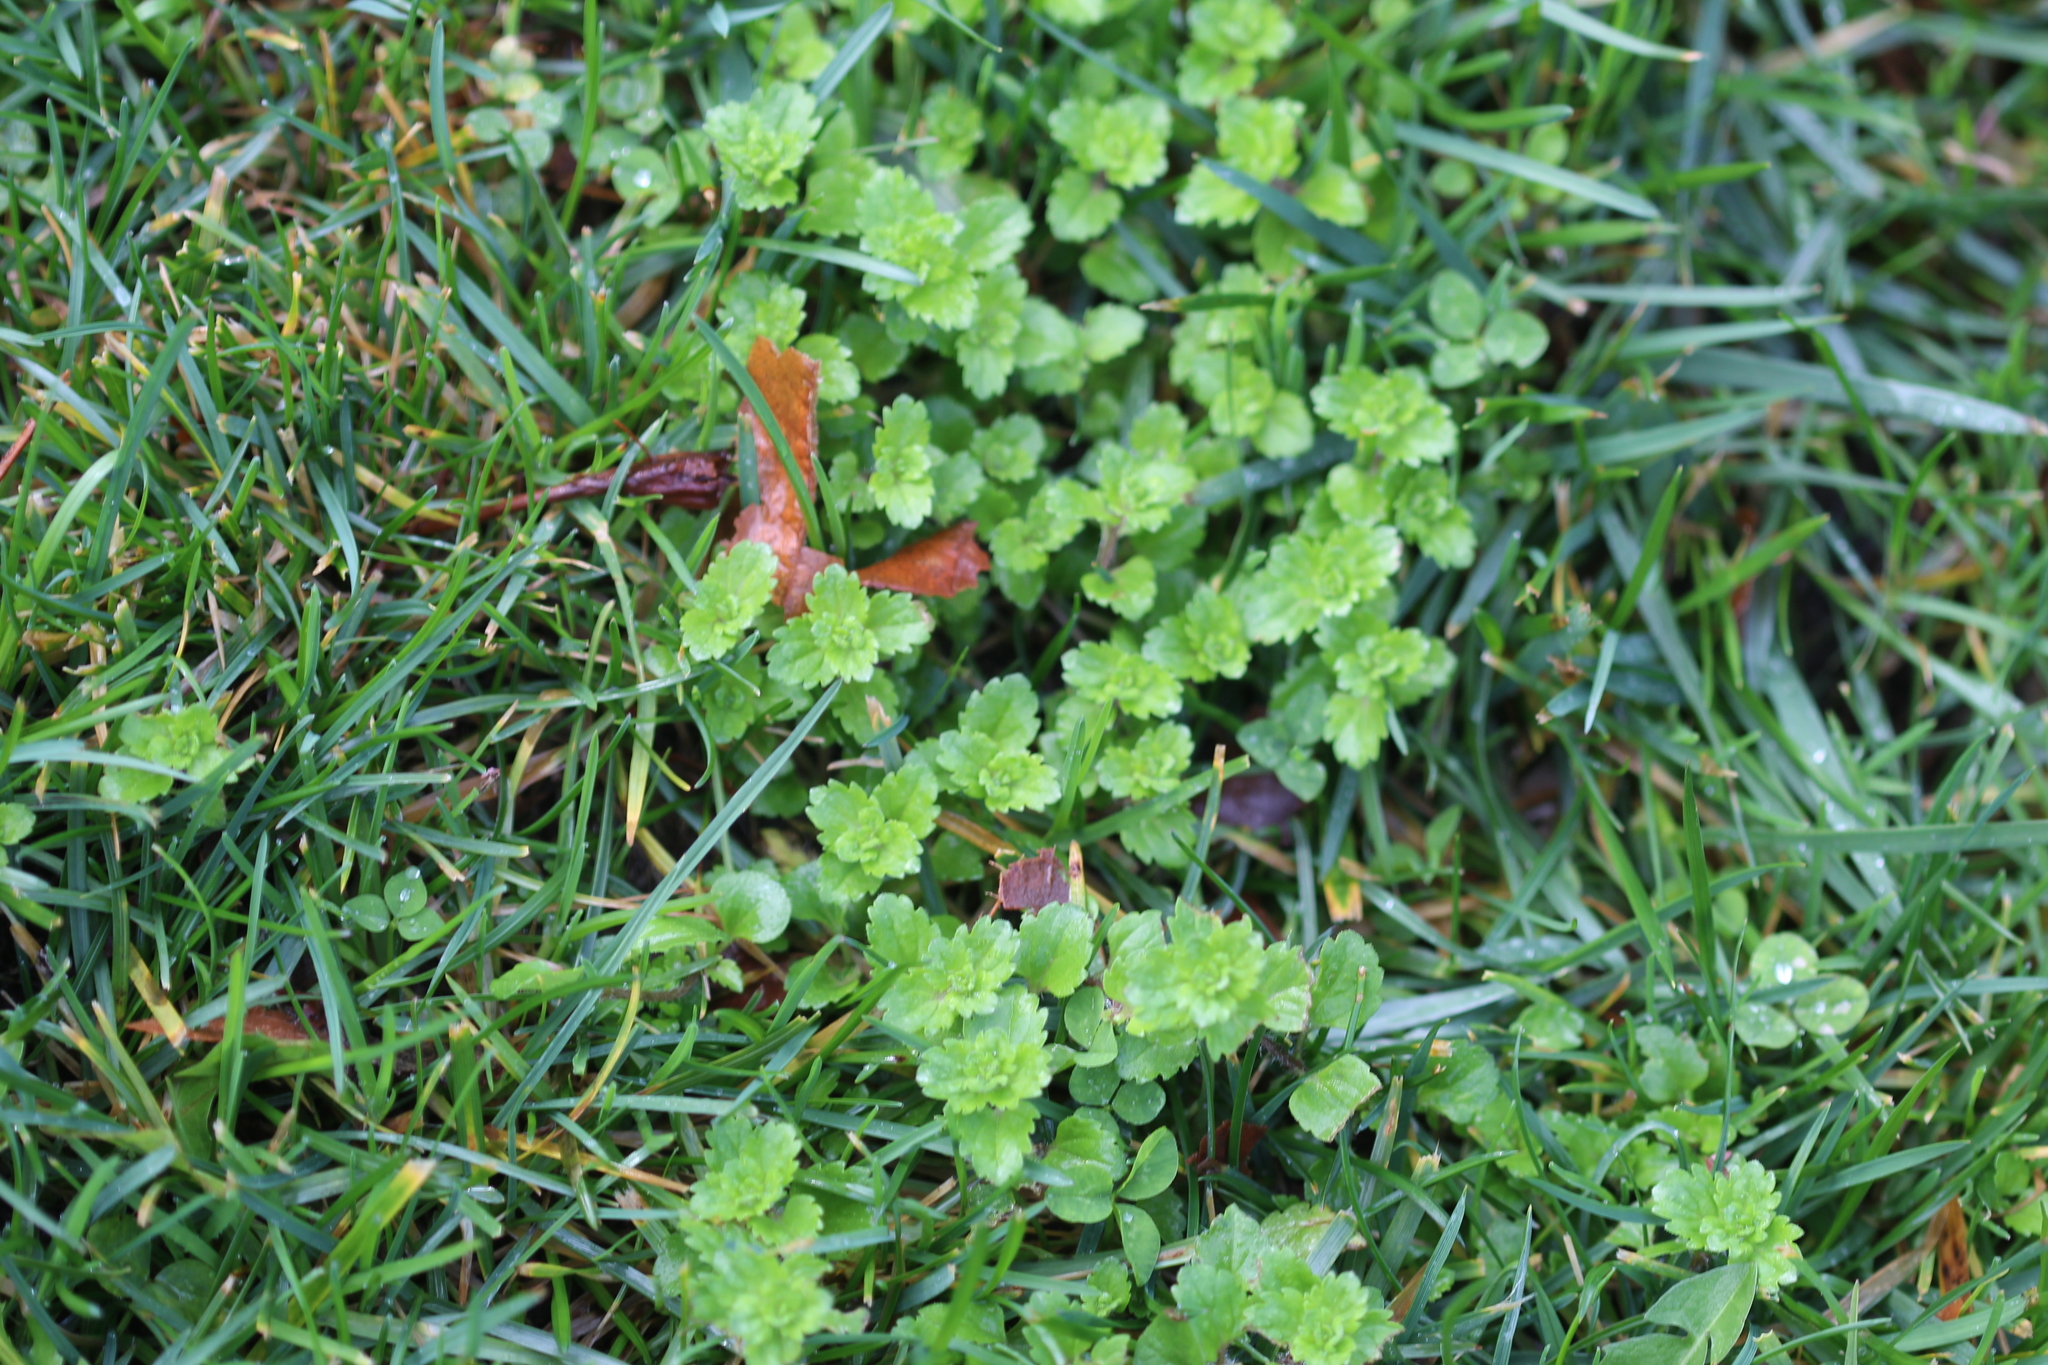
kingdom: Plantae
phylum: Tracheophyta
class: Magnoliopsida
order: Lamiales
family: Plantaginaceae
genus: Veronica
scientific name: Veronica persica
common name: Common field-speedwell
